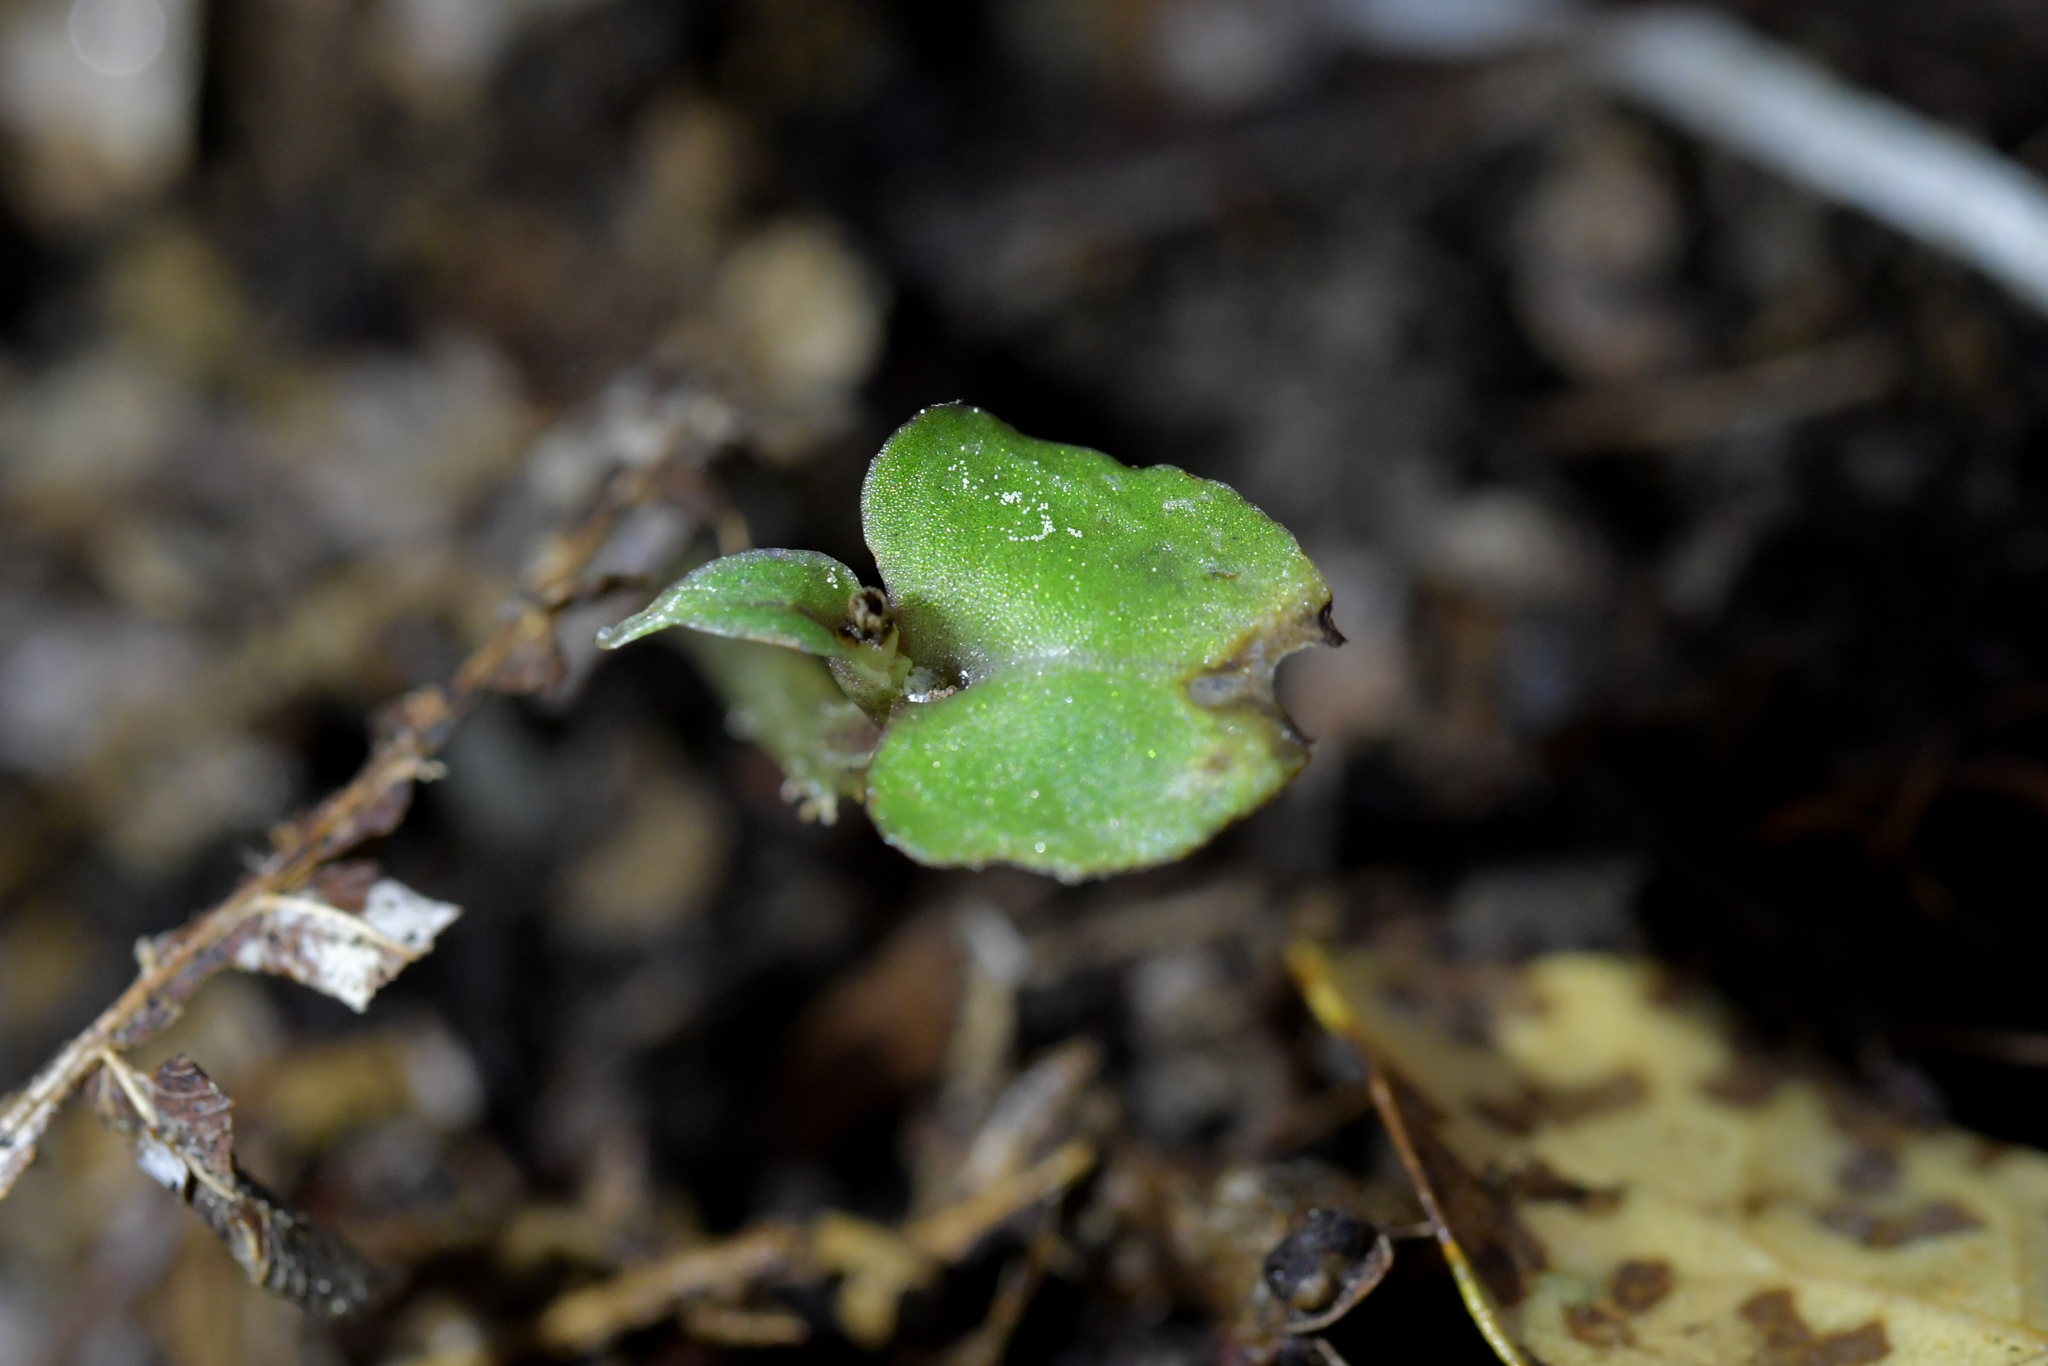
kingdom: Plantae
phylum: Tracheophyta
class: Liliopsida
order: Asparagales
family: Orchidaceae
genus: Corybas
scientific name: Corybas cheesemanii
